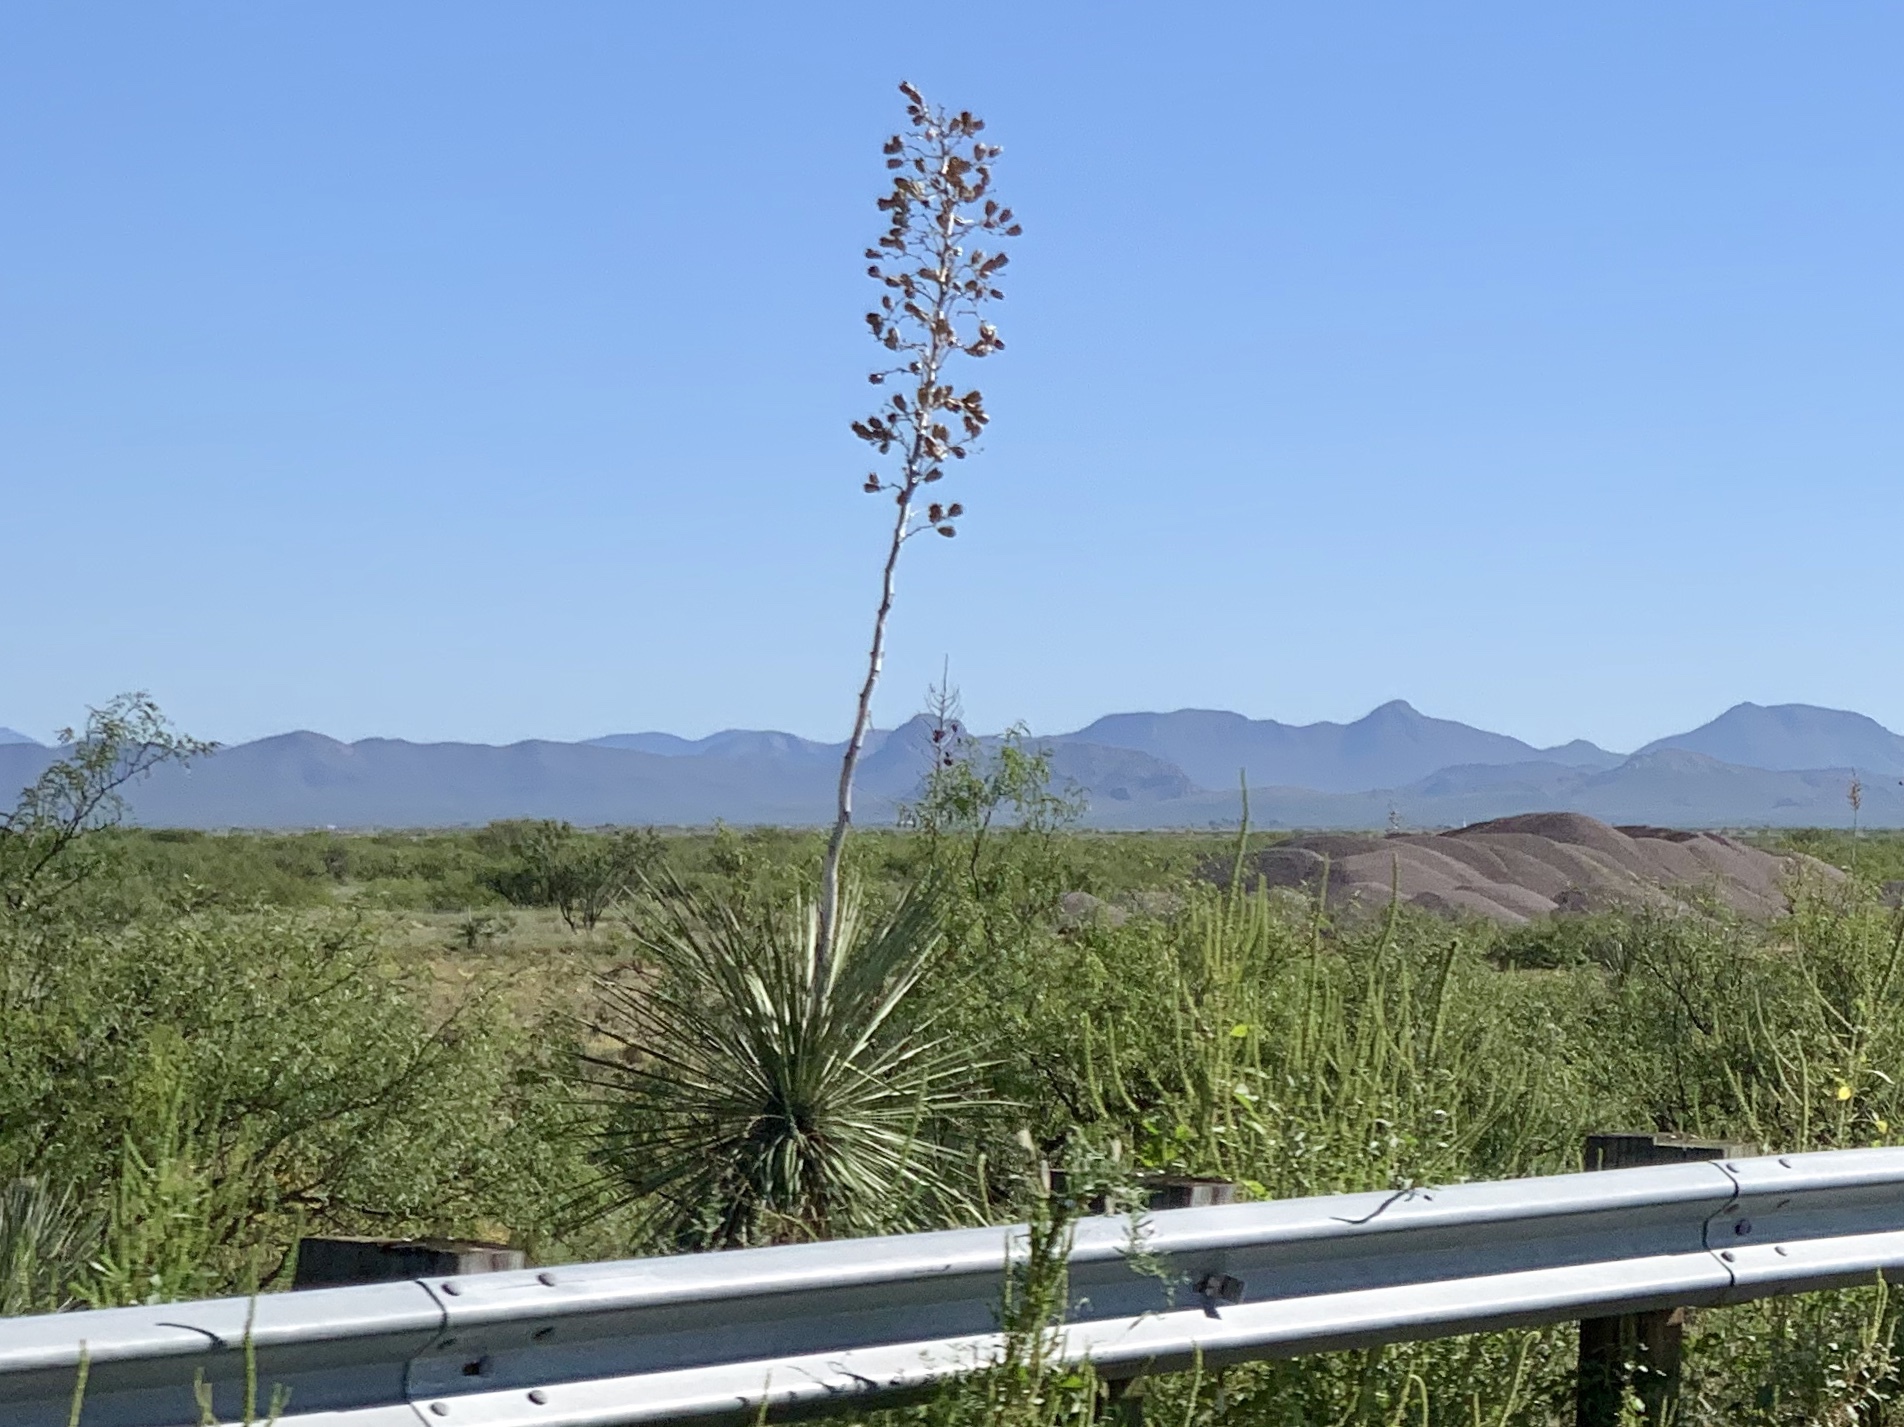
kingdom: Plantae
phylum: Tracheophyta
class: Liliopsida
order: Asparagales
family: Asparagaceae
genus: Yucca
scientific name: Yucca elata
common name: Palmella
